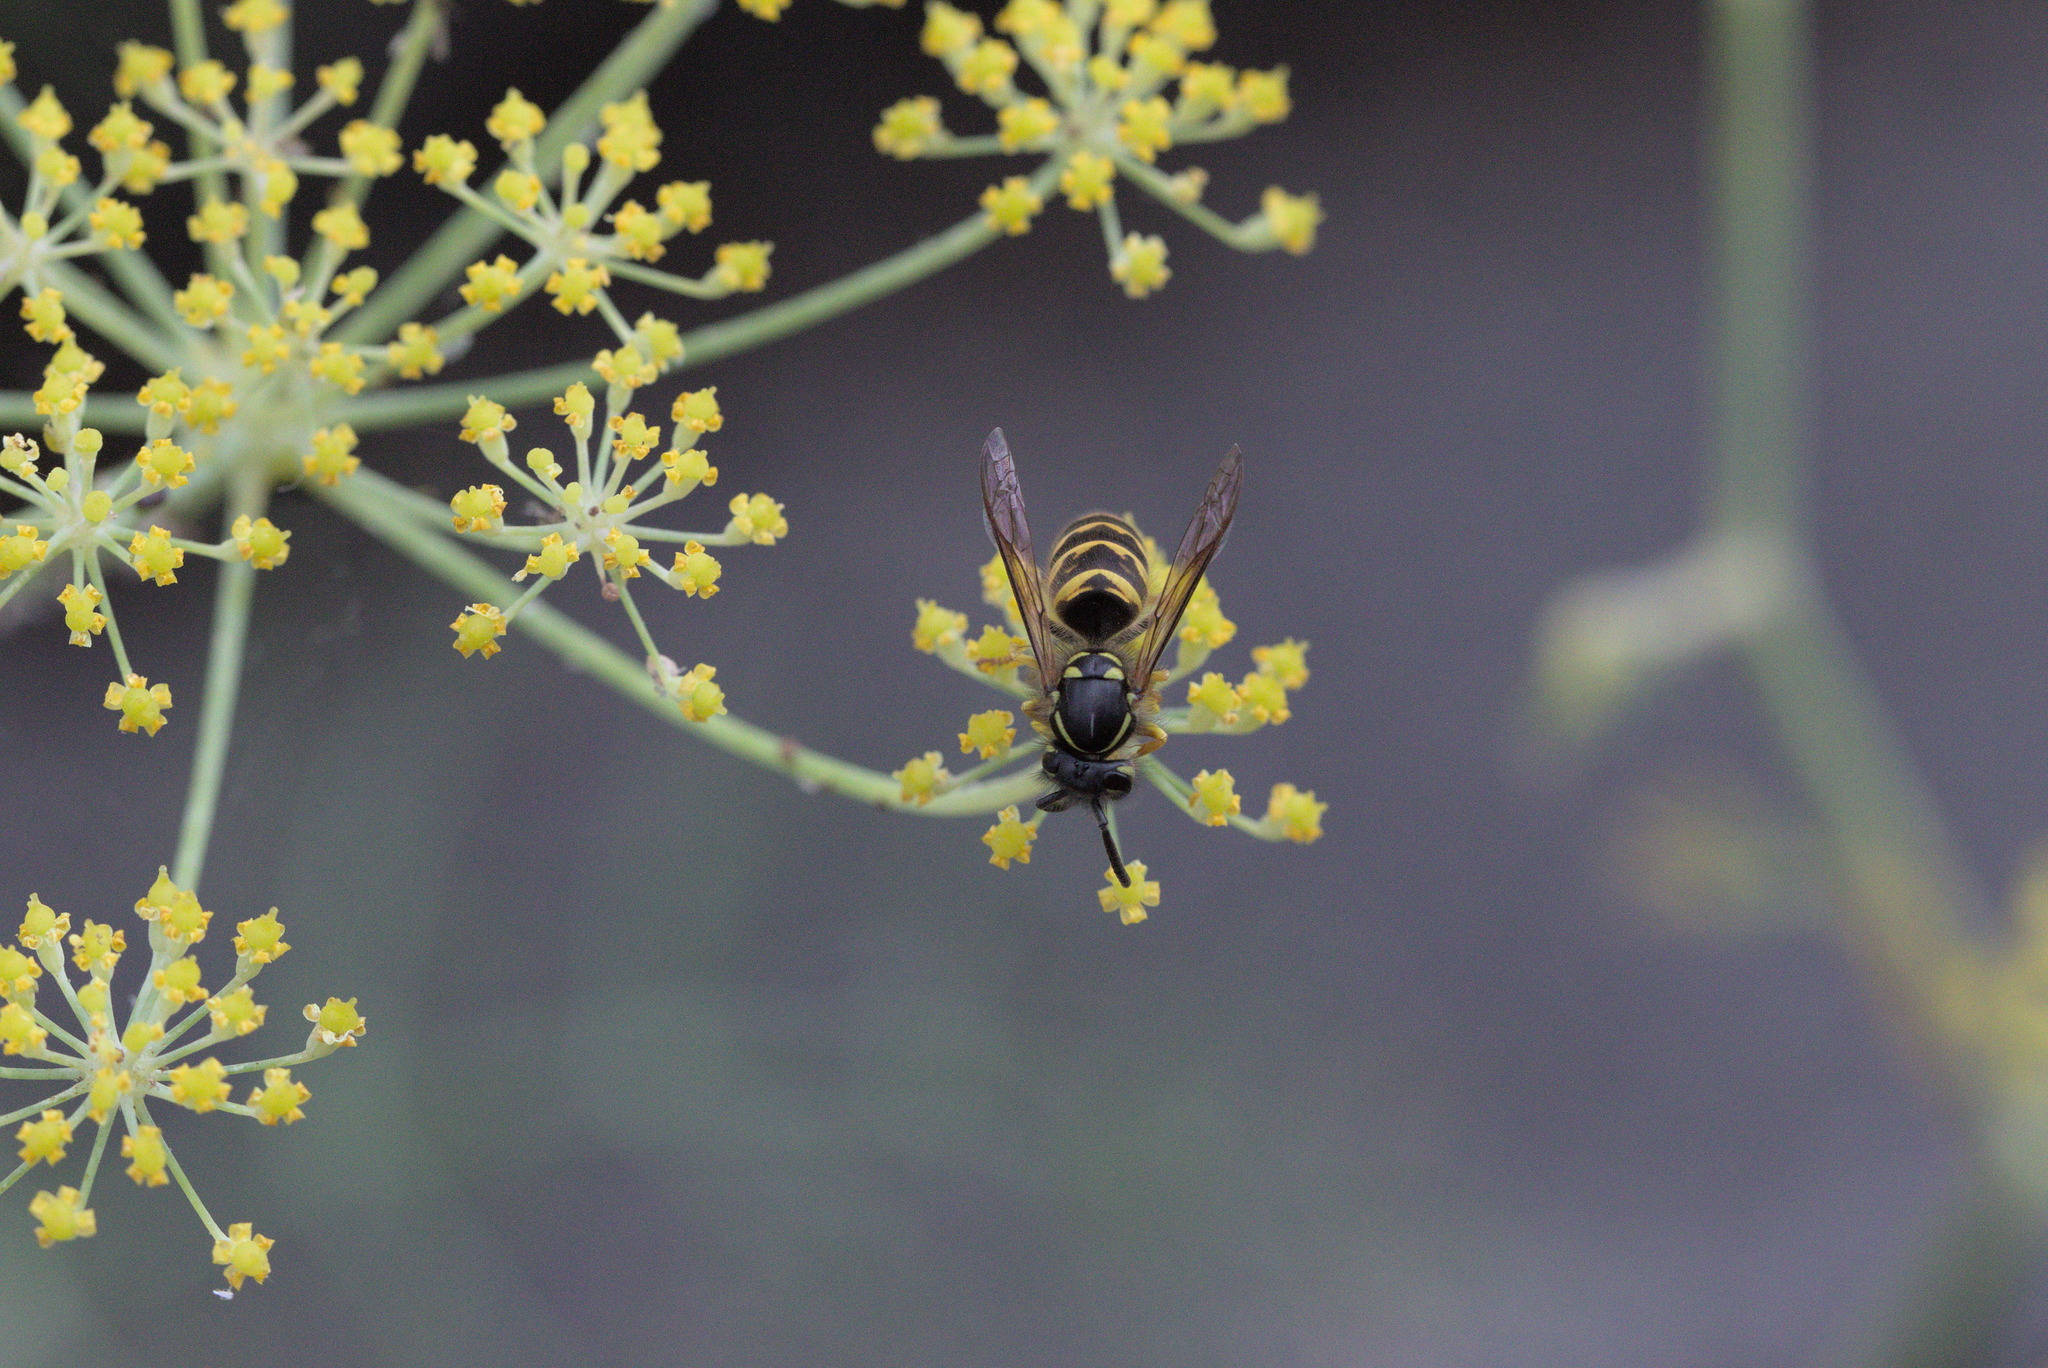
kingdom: Animalia
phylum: Arthropoda
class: Insecta
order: Hymenoptera
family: Vespidae
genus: Vespula
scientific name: Vespula alascensis
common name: Alaska yellowjacket
